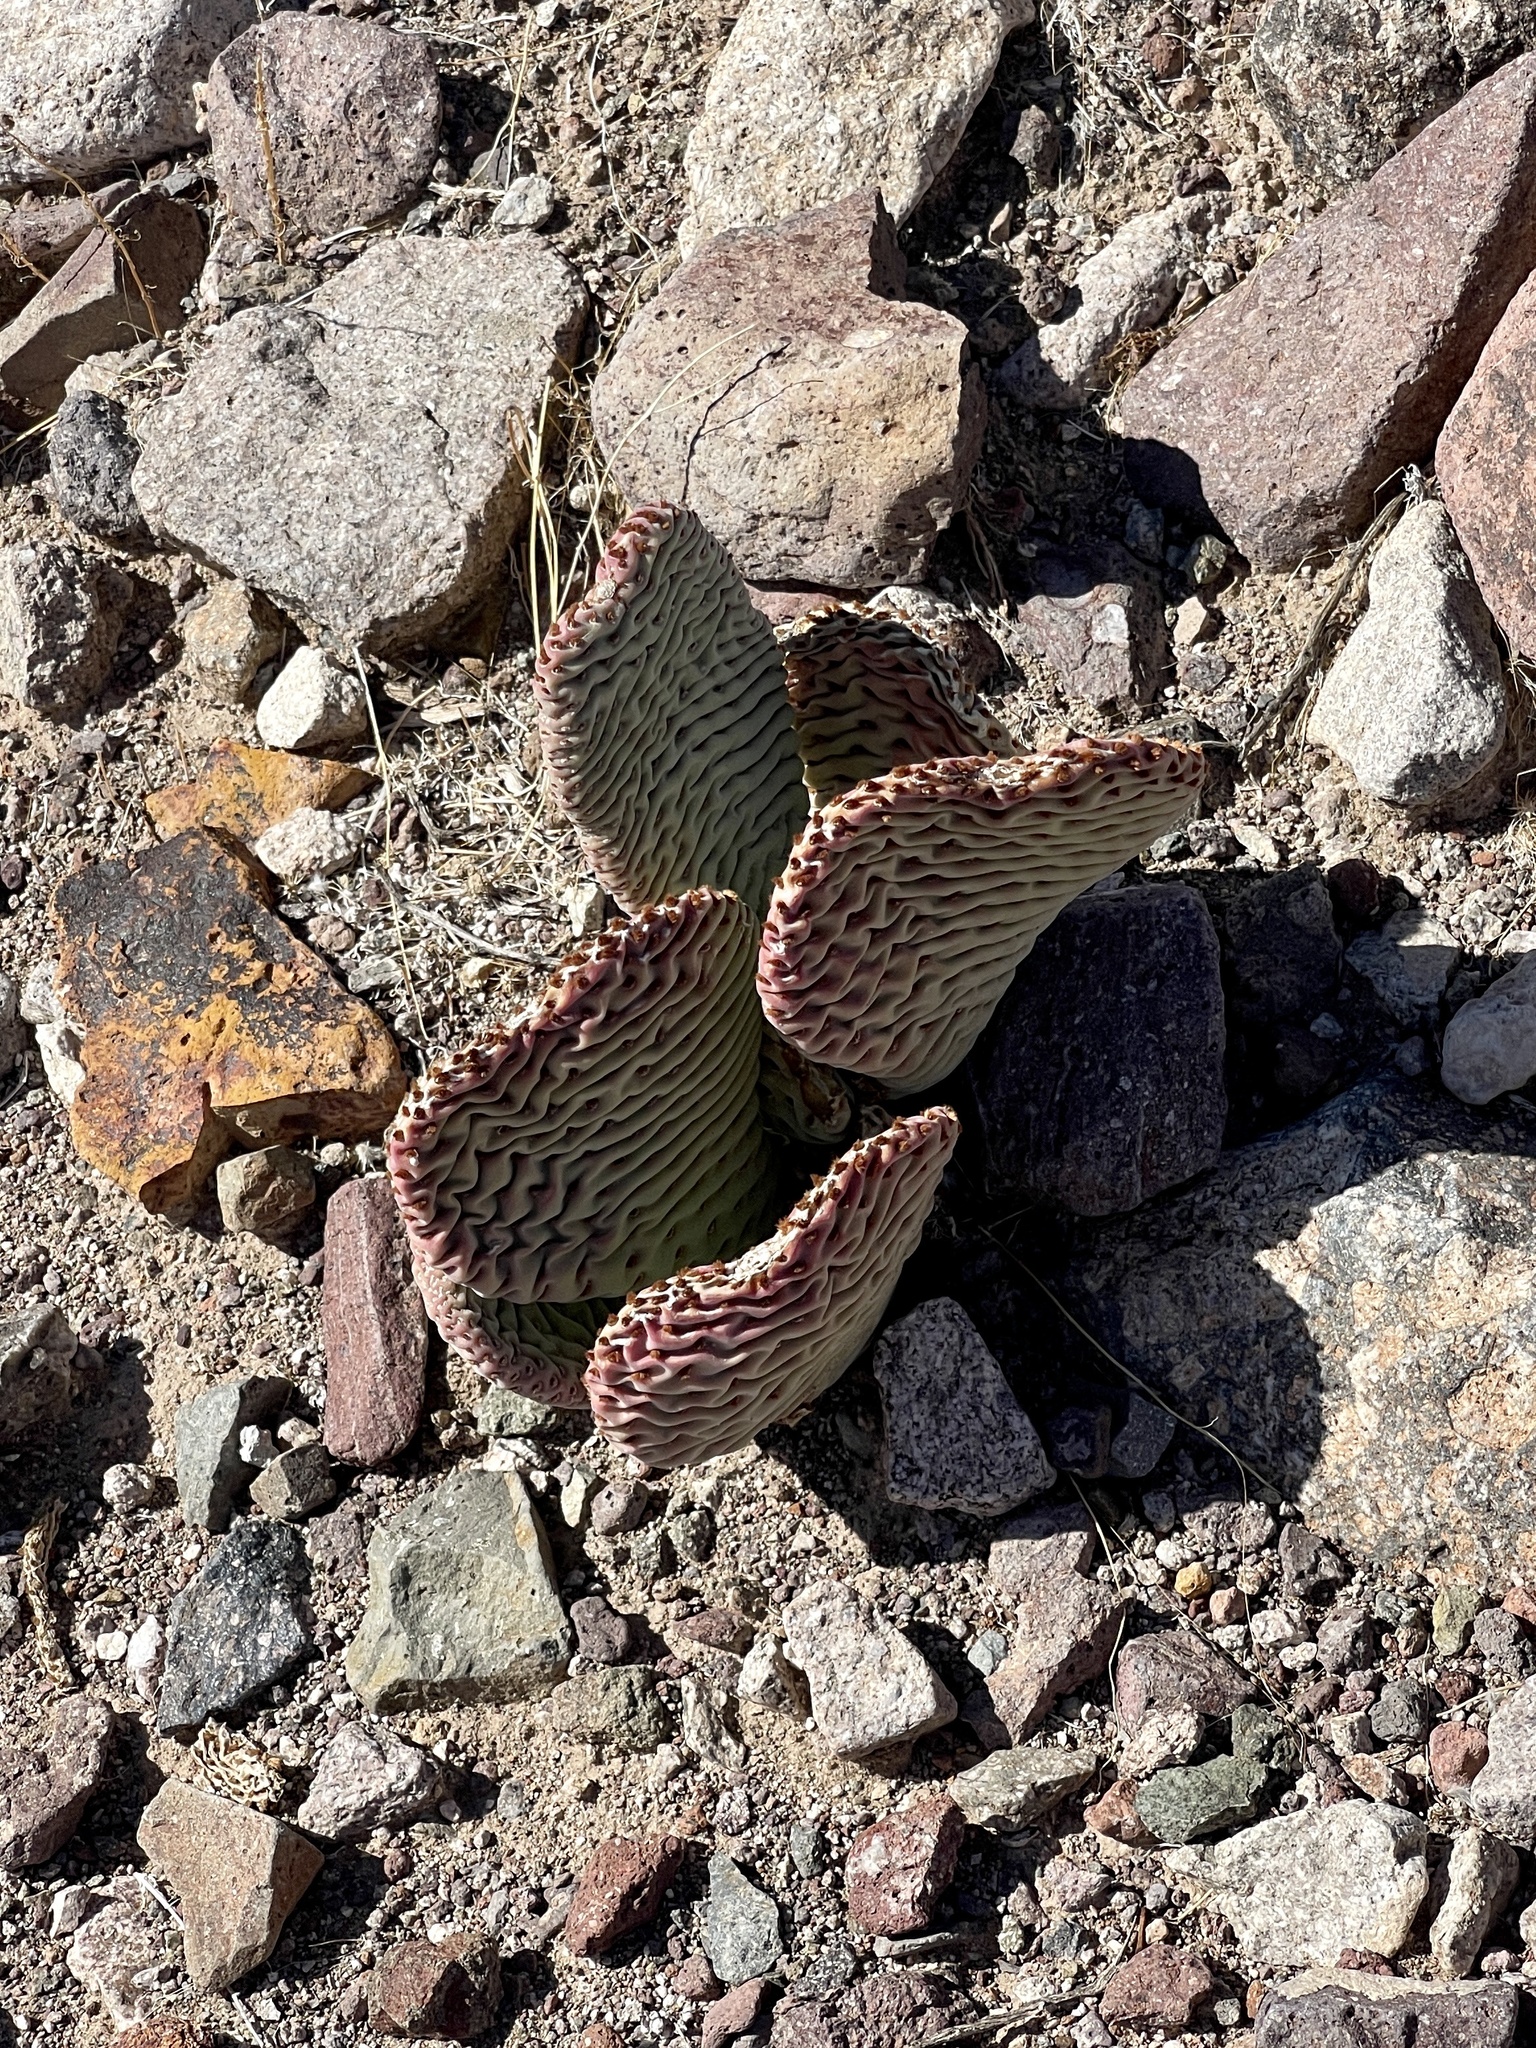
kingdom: Plantae
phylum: Tracheophyta
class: Magnoliopsida
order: Caryophyllales
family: Cactaceae
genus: Opuntia
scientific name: Opuntia basilaris
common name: Beavertail prickly-pear
